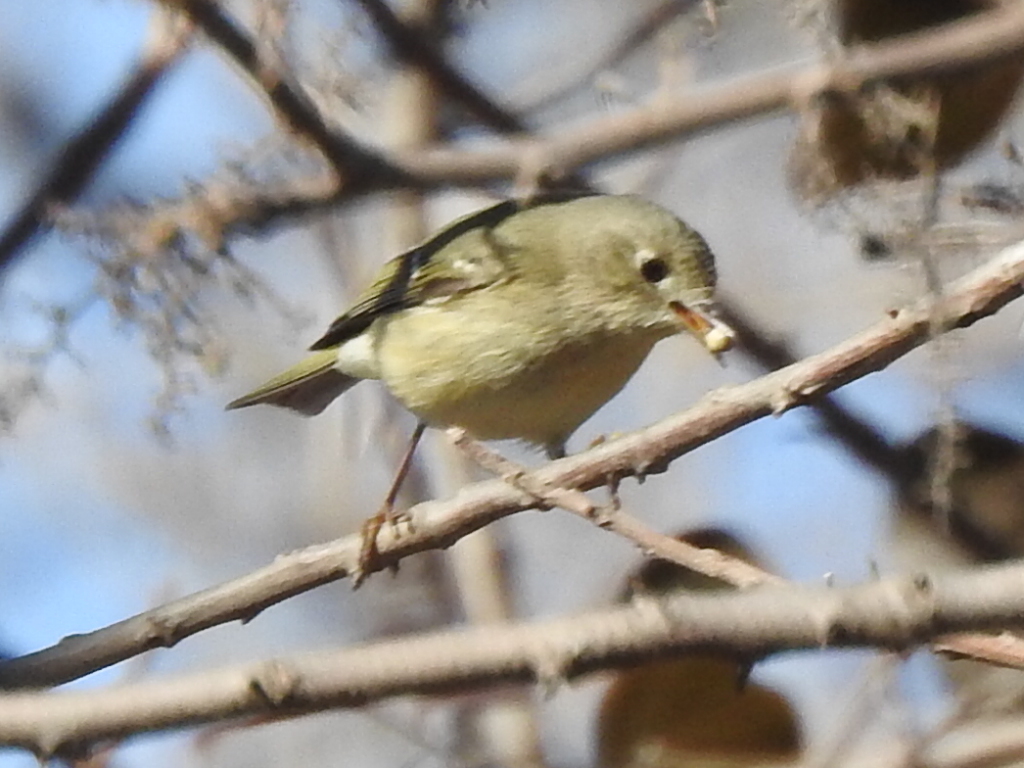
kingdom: Animalia
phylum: Chordata
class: Aves
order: Passeriformes
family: Regulidae
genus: Regulus
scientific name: Regulus calendula
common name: Ruby-crowned kinglet
